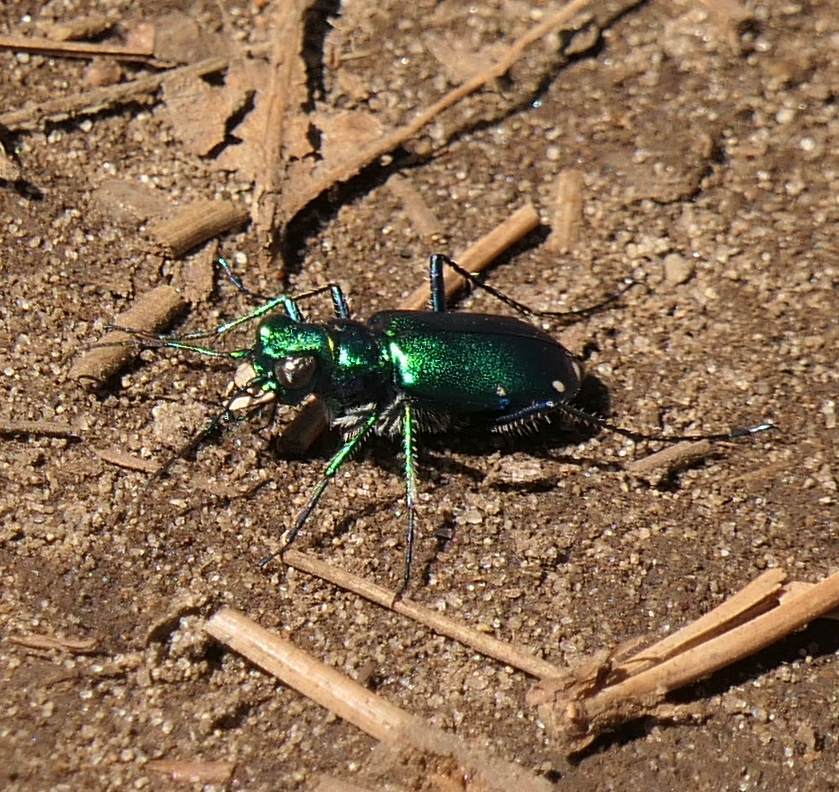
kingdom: Animalia
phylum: Arthropoda
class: Insecta
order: Coleoptera
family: Carabidae
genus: Cicindela
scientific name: Cicindela sexguttata
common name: Six-spotted tiger beetle
